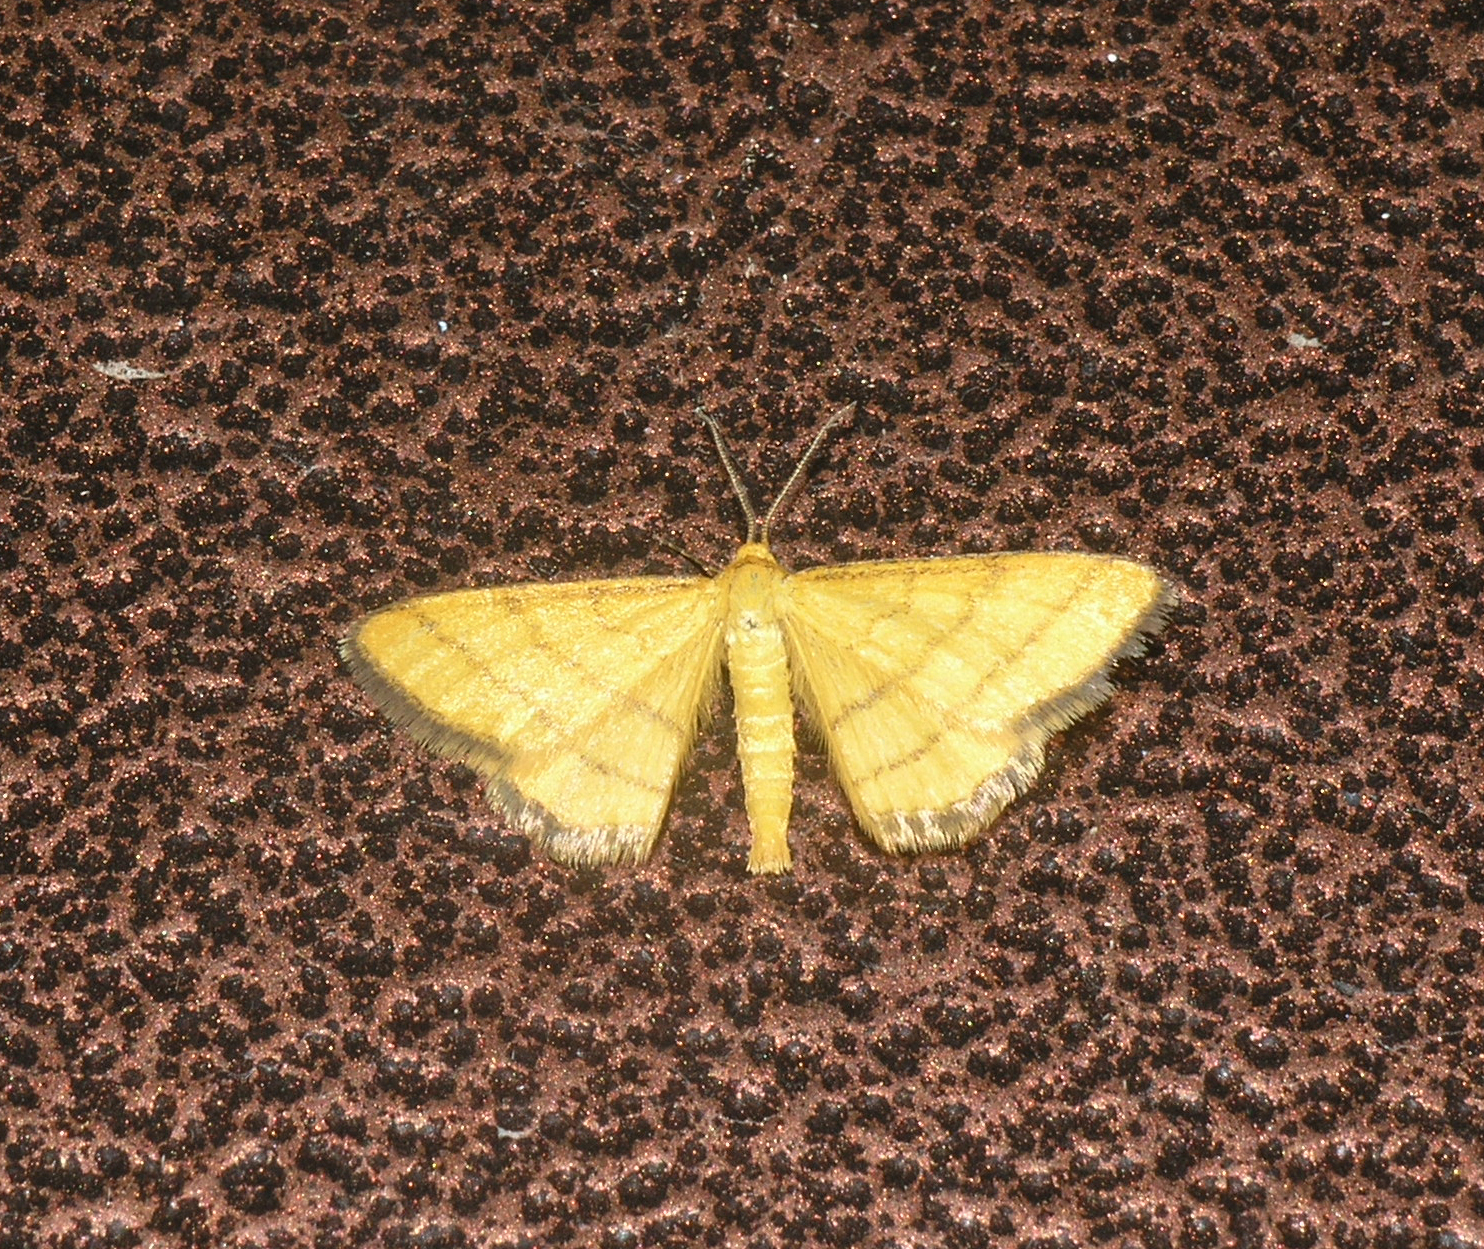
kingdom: Animalia
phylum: Arthropoda
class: Insecta
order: Lepidoptera
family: Geometridae
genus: Idaea
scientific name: Idaea aureolaria
